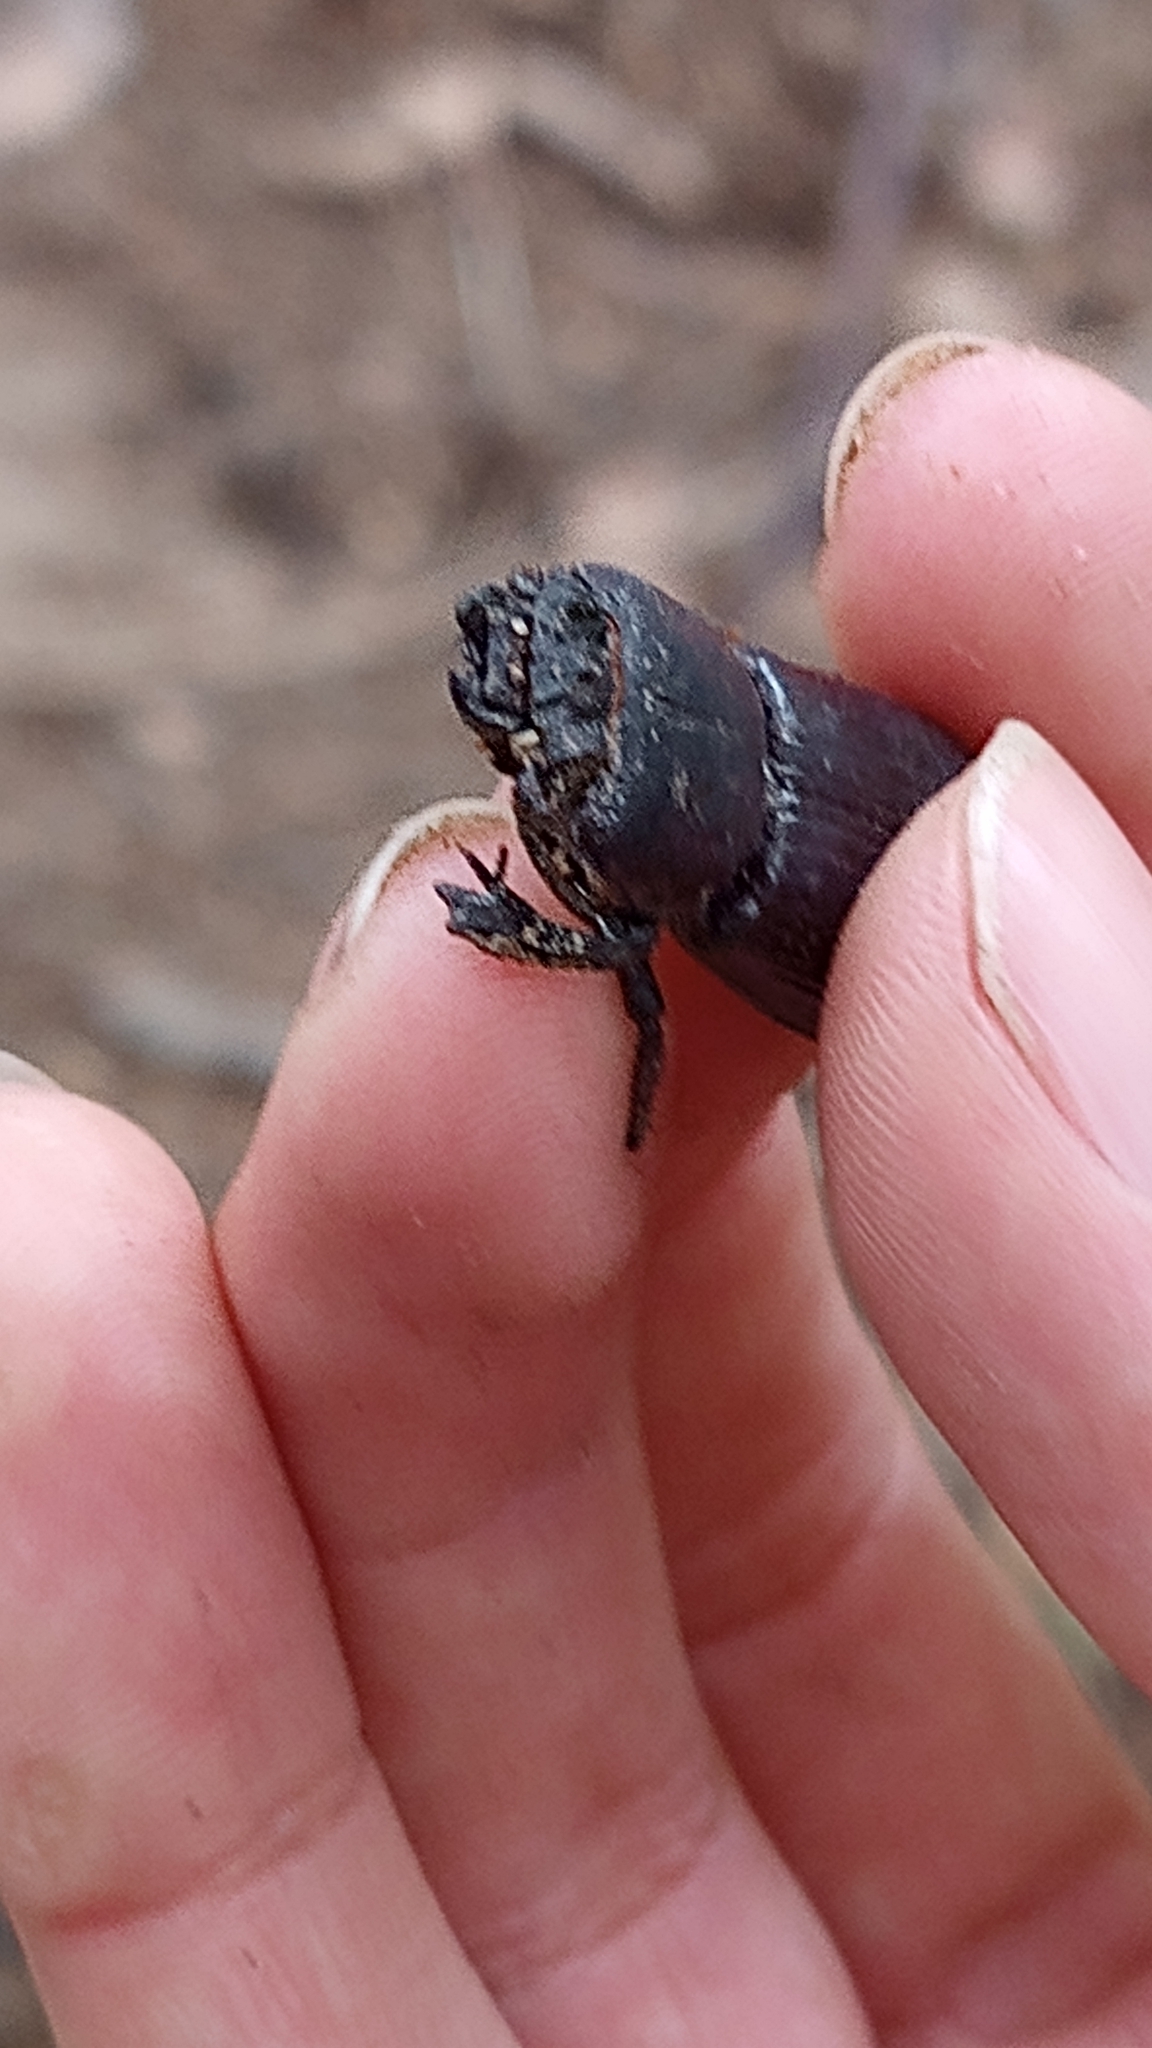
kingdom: Animalia
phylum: Arthropoda
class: Insecta
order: Coleoptera
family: Passalidae
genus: Ptichopus
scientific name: Ptichopus angulatus
